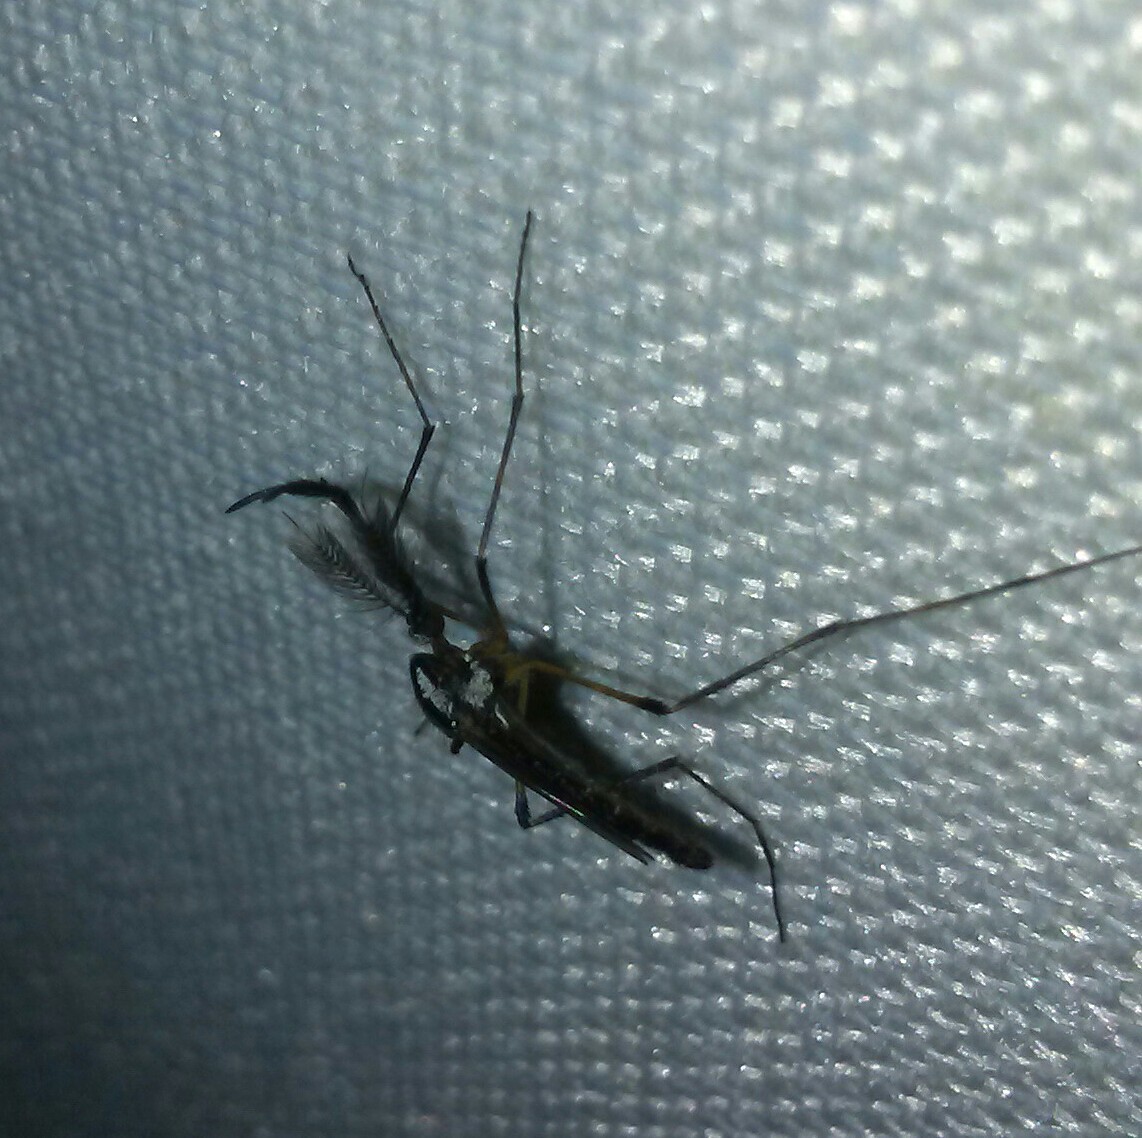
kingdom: Animalia
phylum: Arthropoda
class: Insecta
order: Diptera
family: Culicidae
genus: Psorophora
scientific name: Psorophora howardii
